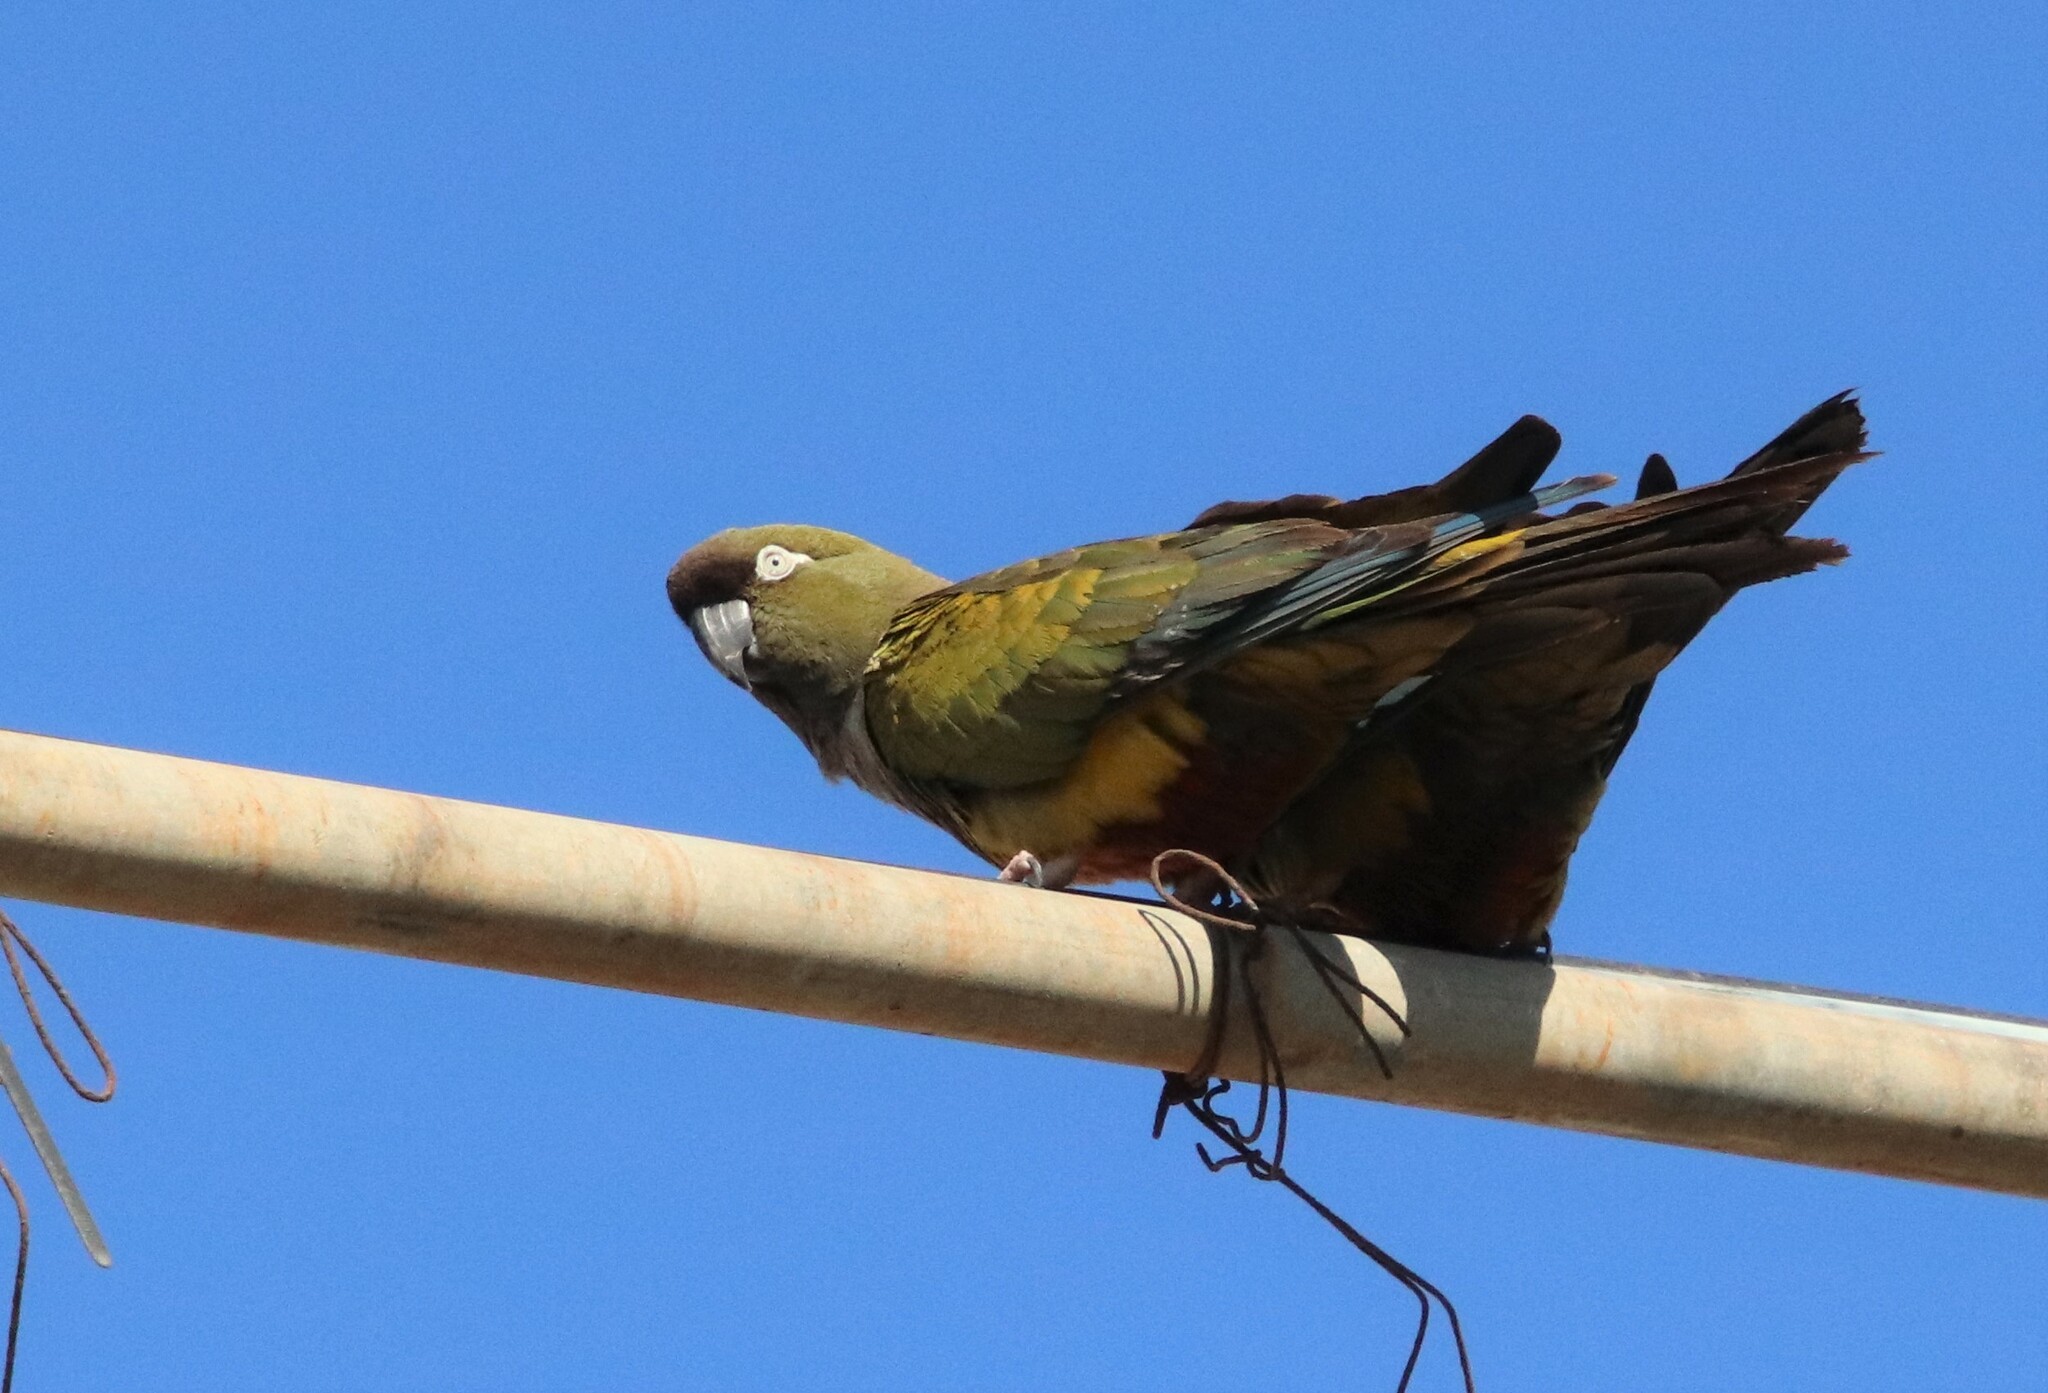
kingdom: Animalia
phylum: Chordata
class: Aves
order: Psittaciformes
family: Psittacidae
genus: Cyanoliseus
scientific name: Cyanoliseus patagonus
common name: Burrowing parrot
